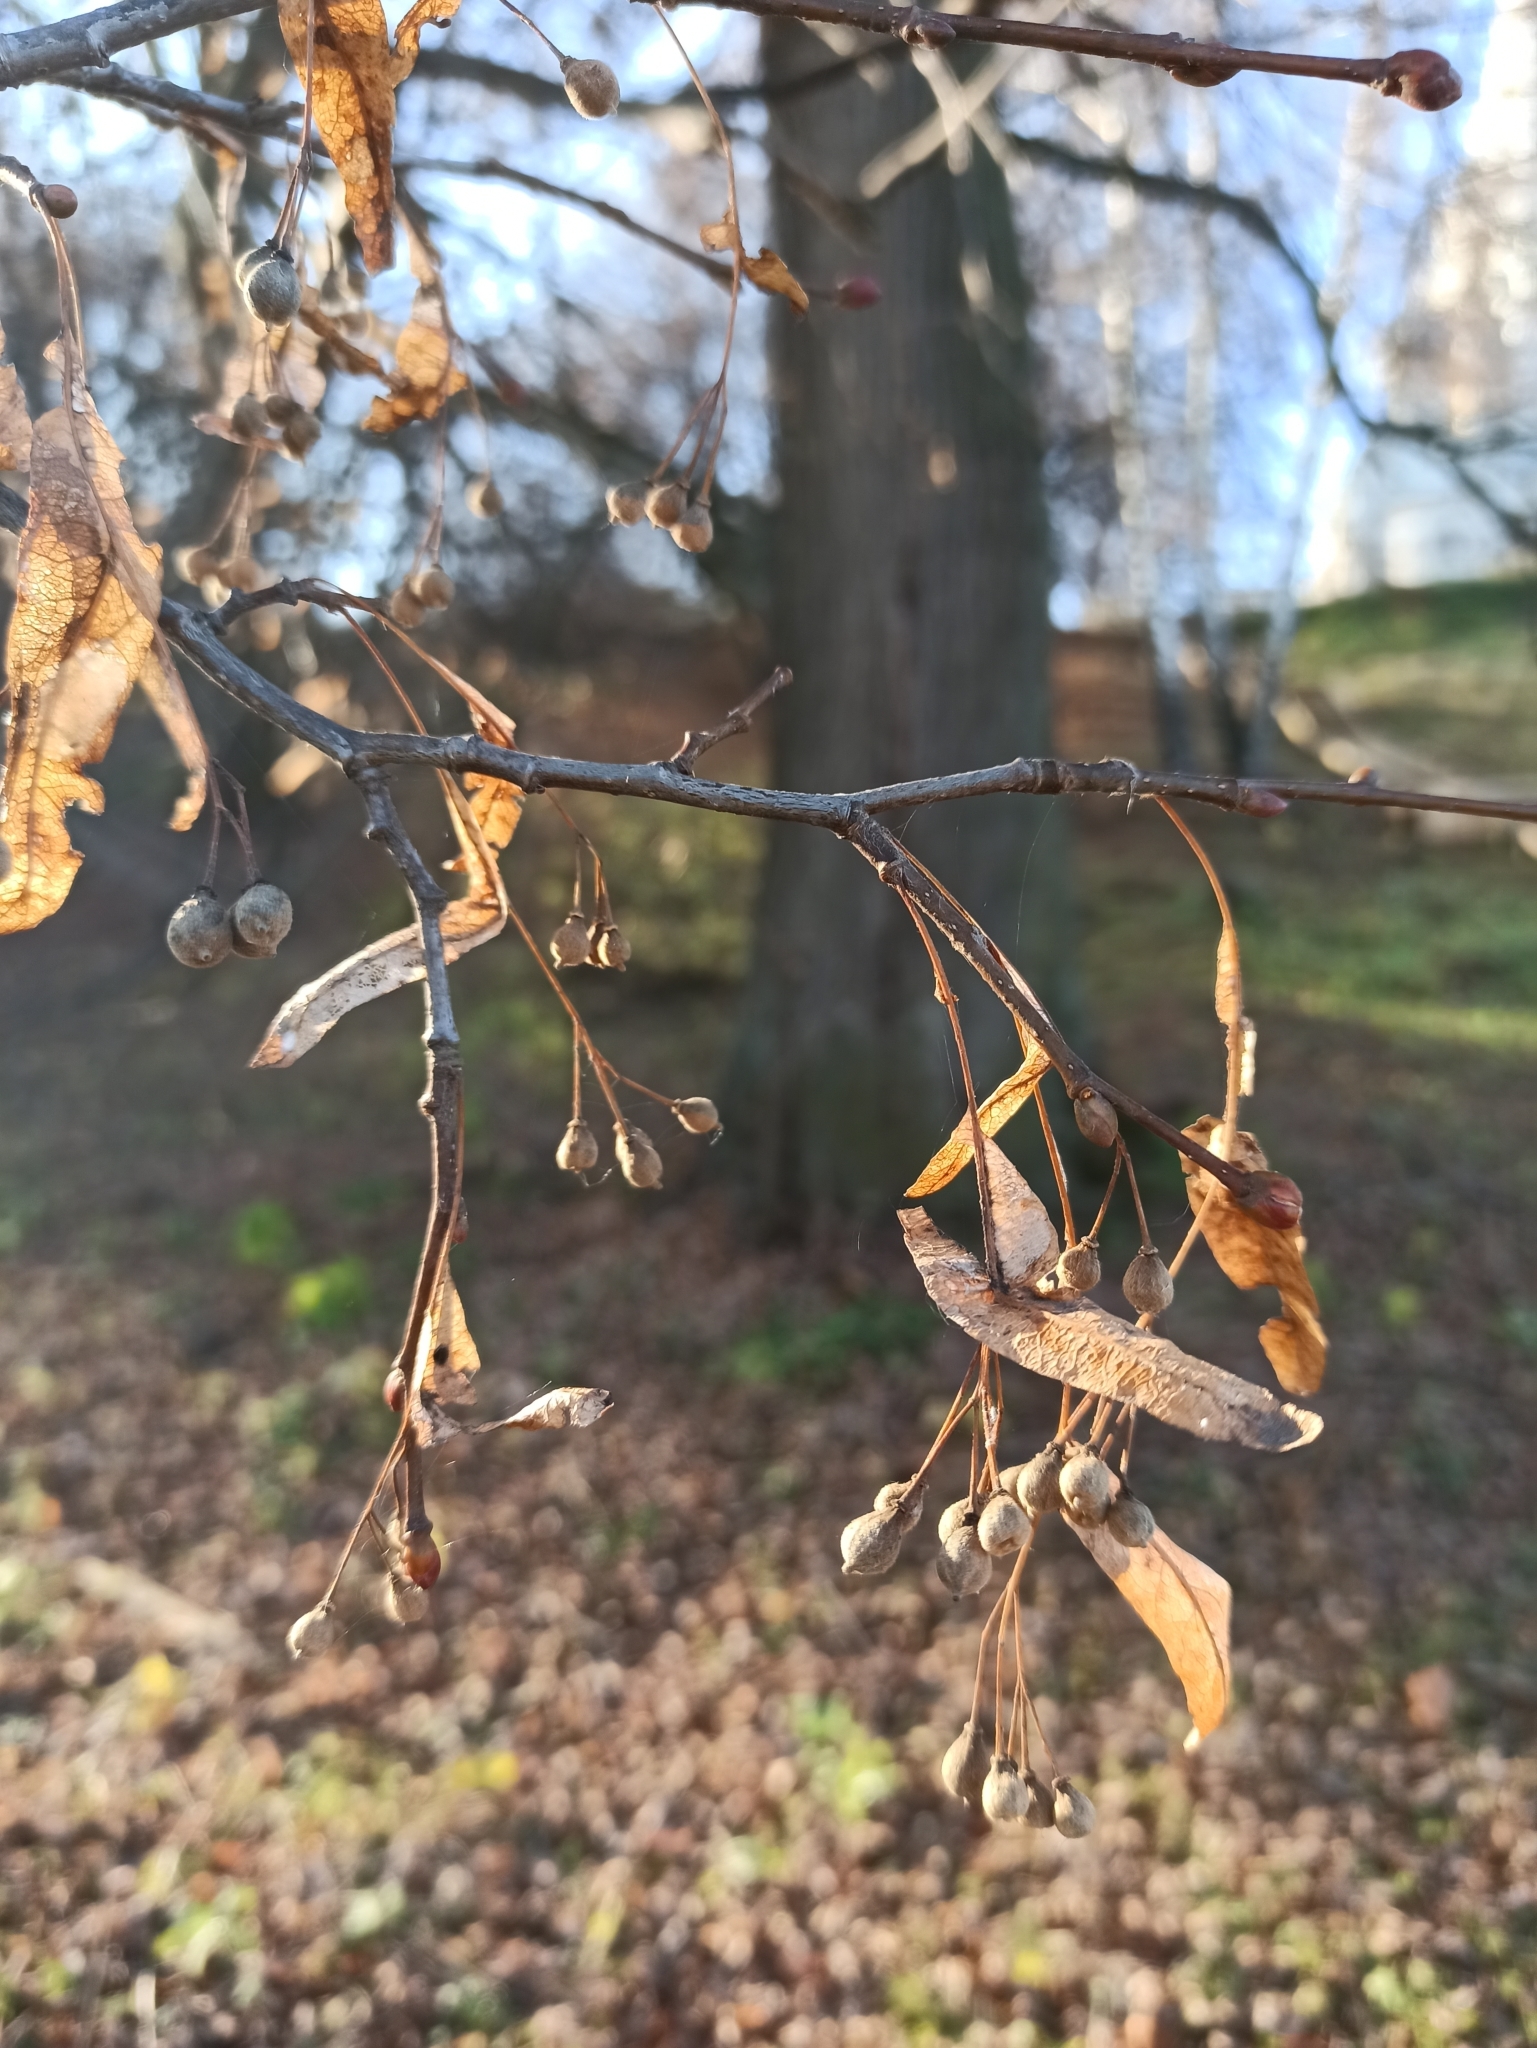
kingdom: Plantae
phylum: Tracheophyta
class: Magnoliopsida
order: Malvales
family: Malvaceae
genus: Tilia
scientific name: Tilia cordata
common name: Small-leaved lime
